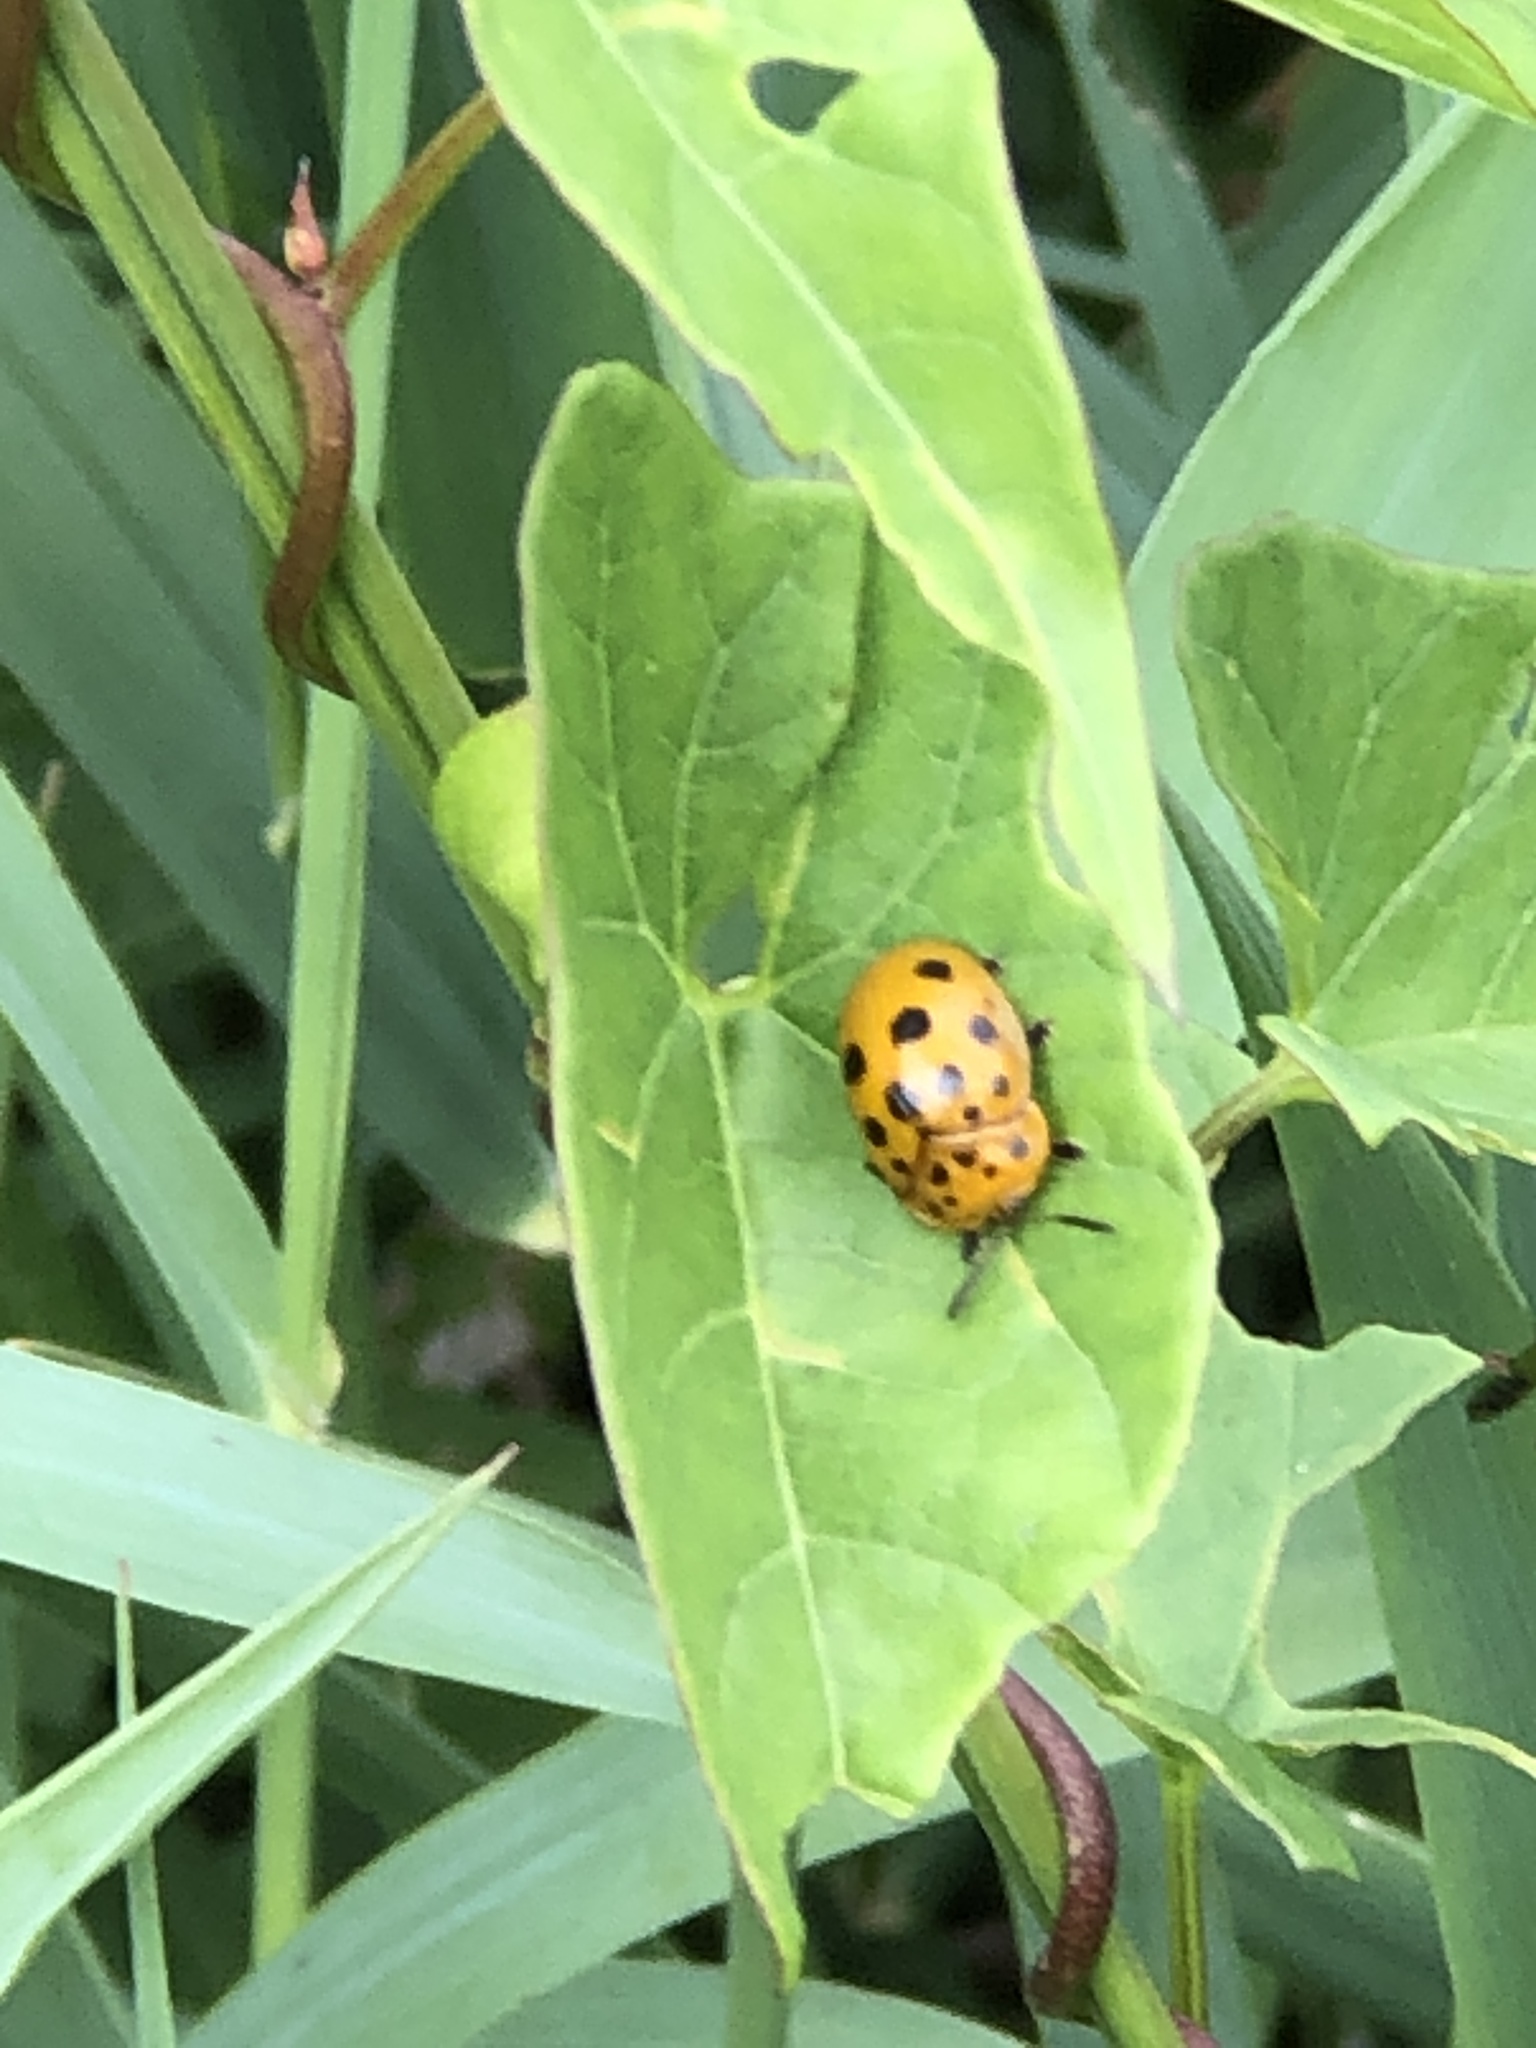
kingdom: Animalia
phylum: Arthropoda
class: Insecta
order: Coleoptera
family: Chrysomelidae
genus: Chelymorpha
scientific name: Chelymorpha cassidea
